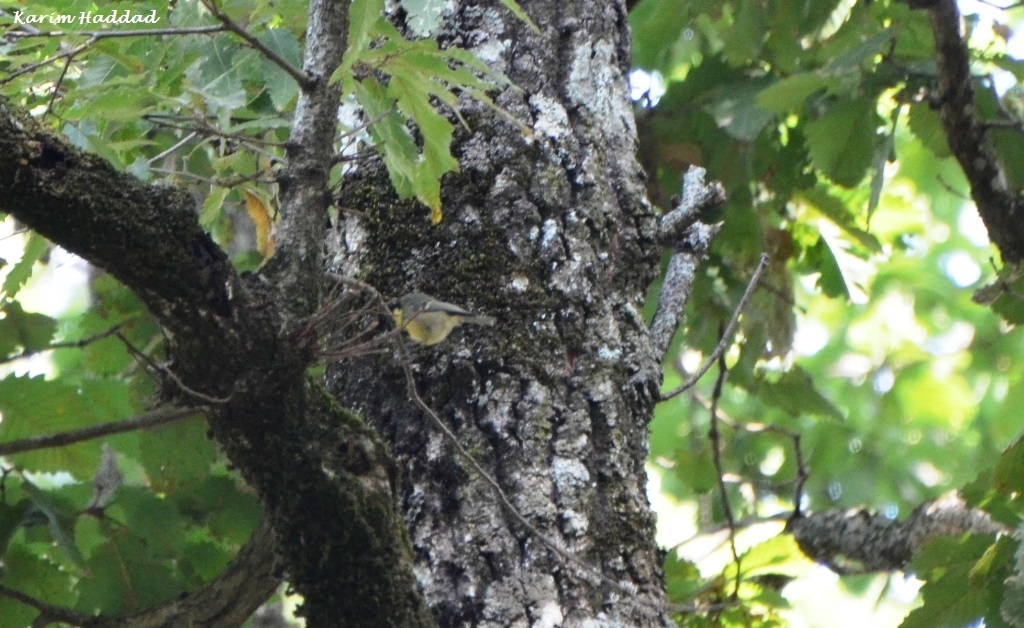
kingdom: Animalia
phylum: Chordata
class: Aves
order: Passeriformes
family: Paridae
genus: Periparus
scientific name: Periparus ater
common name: Coal tit
